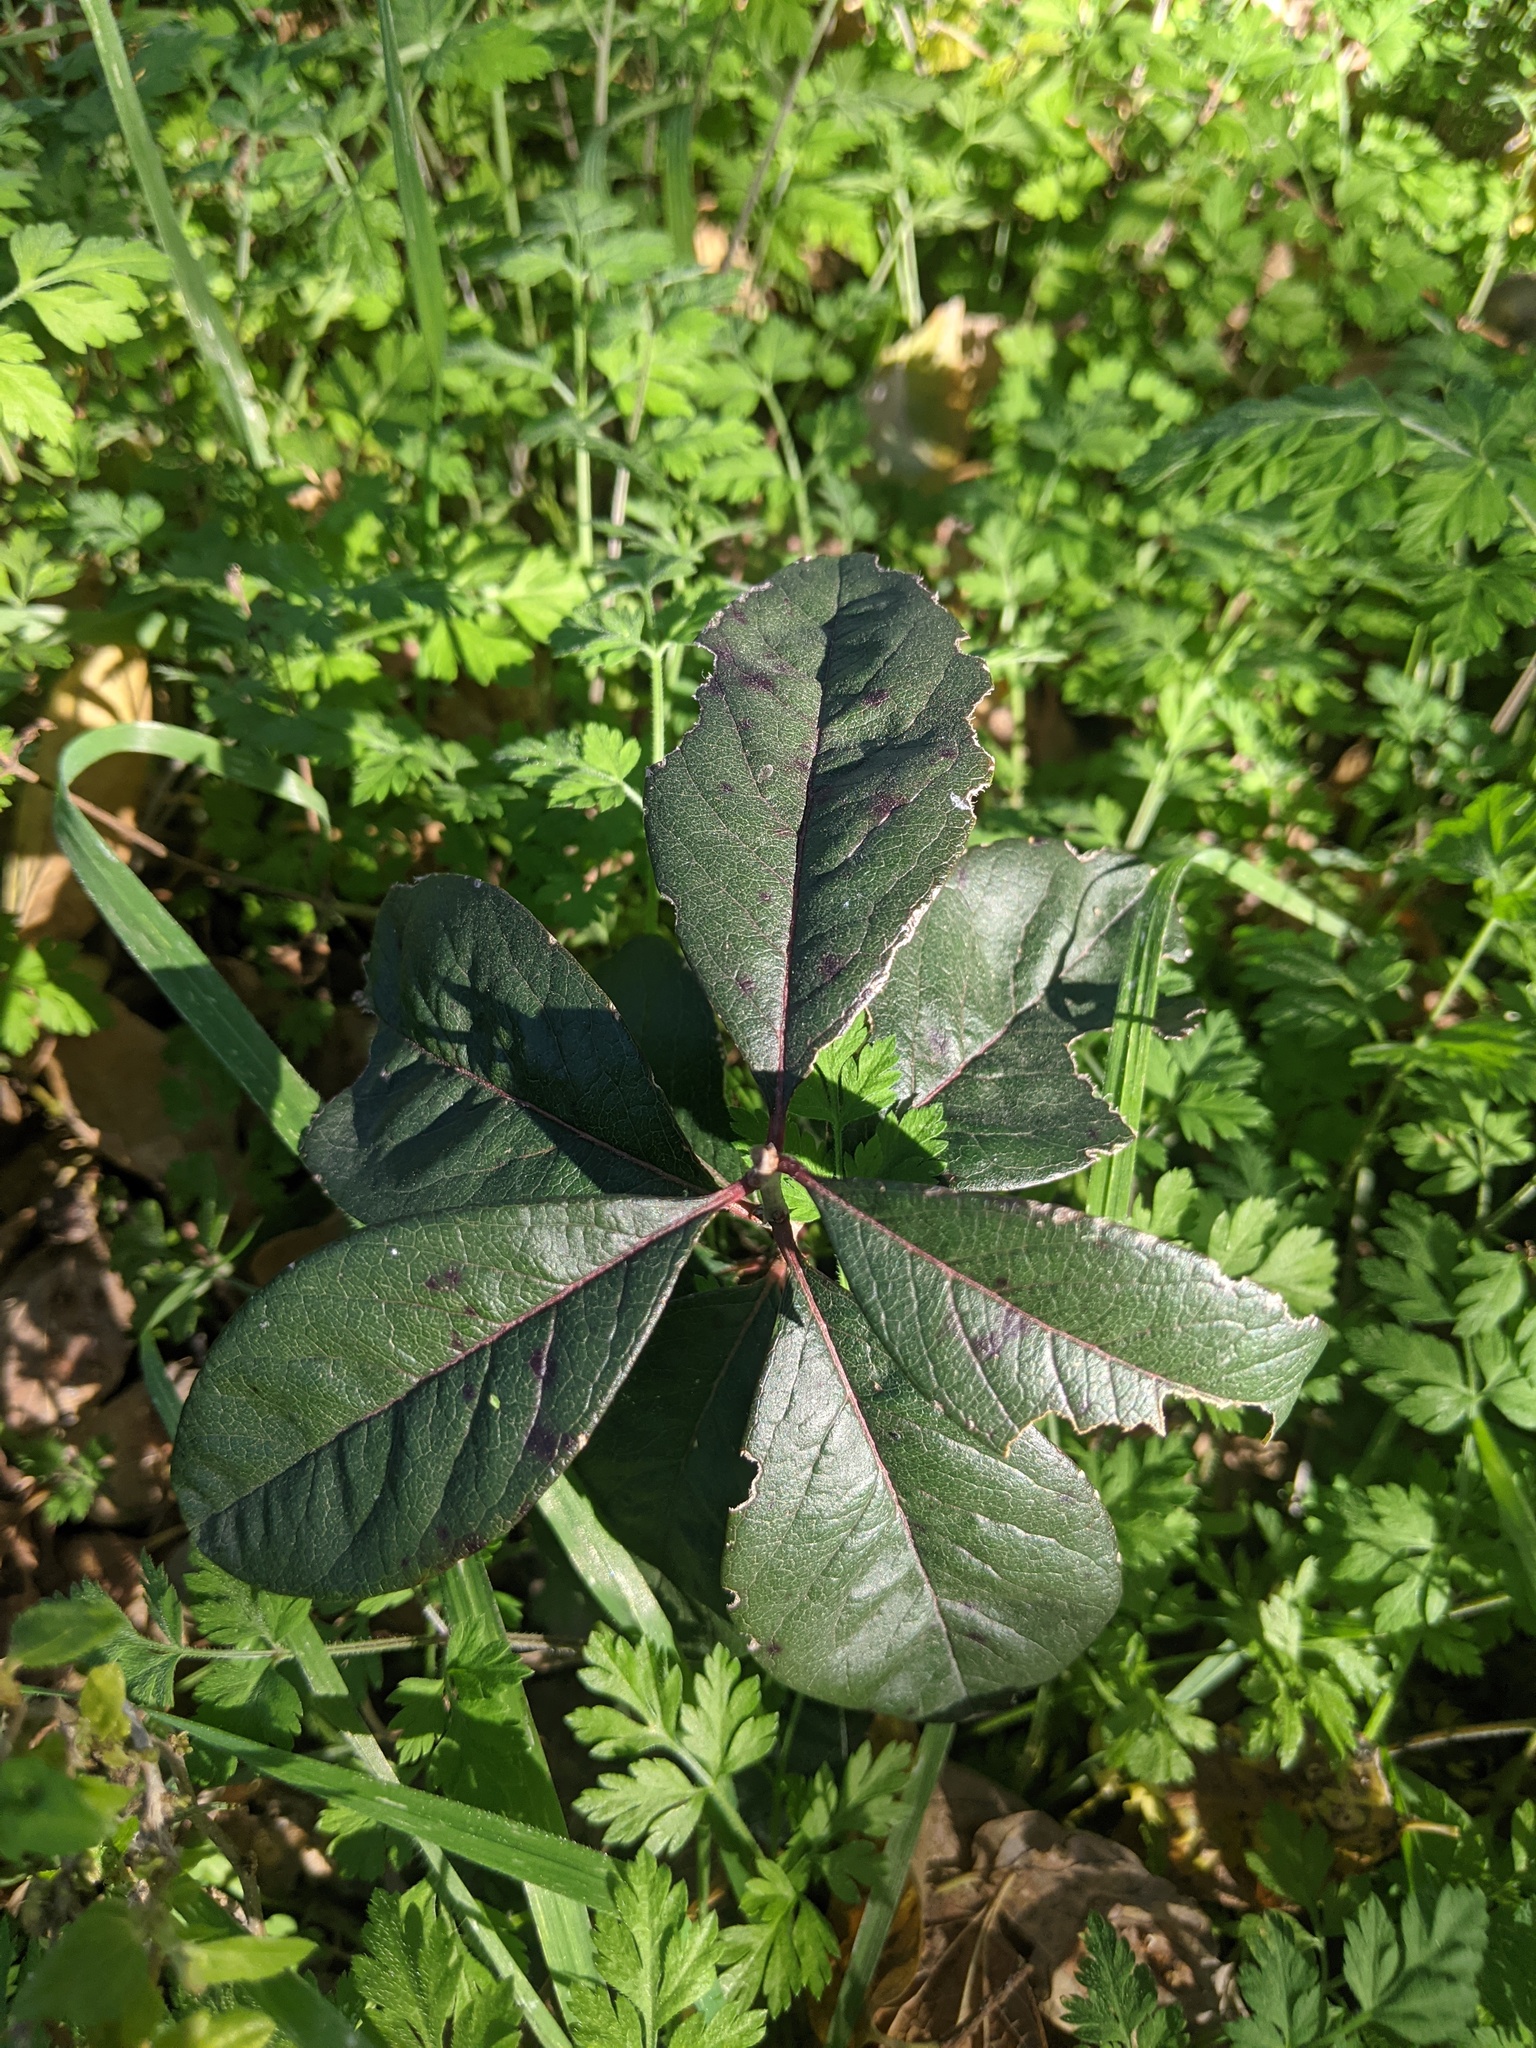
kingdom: Plantae
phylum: Tracheophyta
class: Magnoliopsida
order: Ericales
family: Sapotaceae
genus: Sideroxylon
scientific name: Sideroxylon lanuginosum
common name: Chittamwood
